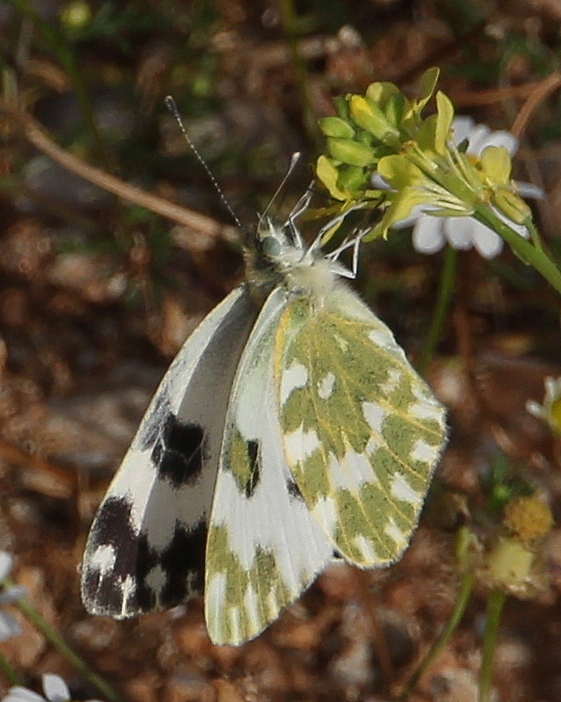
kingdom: Animalia
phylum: Arthropoda
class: Insecta
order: Lepidoptera
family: Pieridae
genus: Pontia
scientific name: Pontia edusa
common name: Eastern bath white
